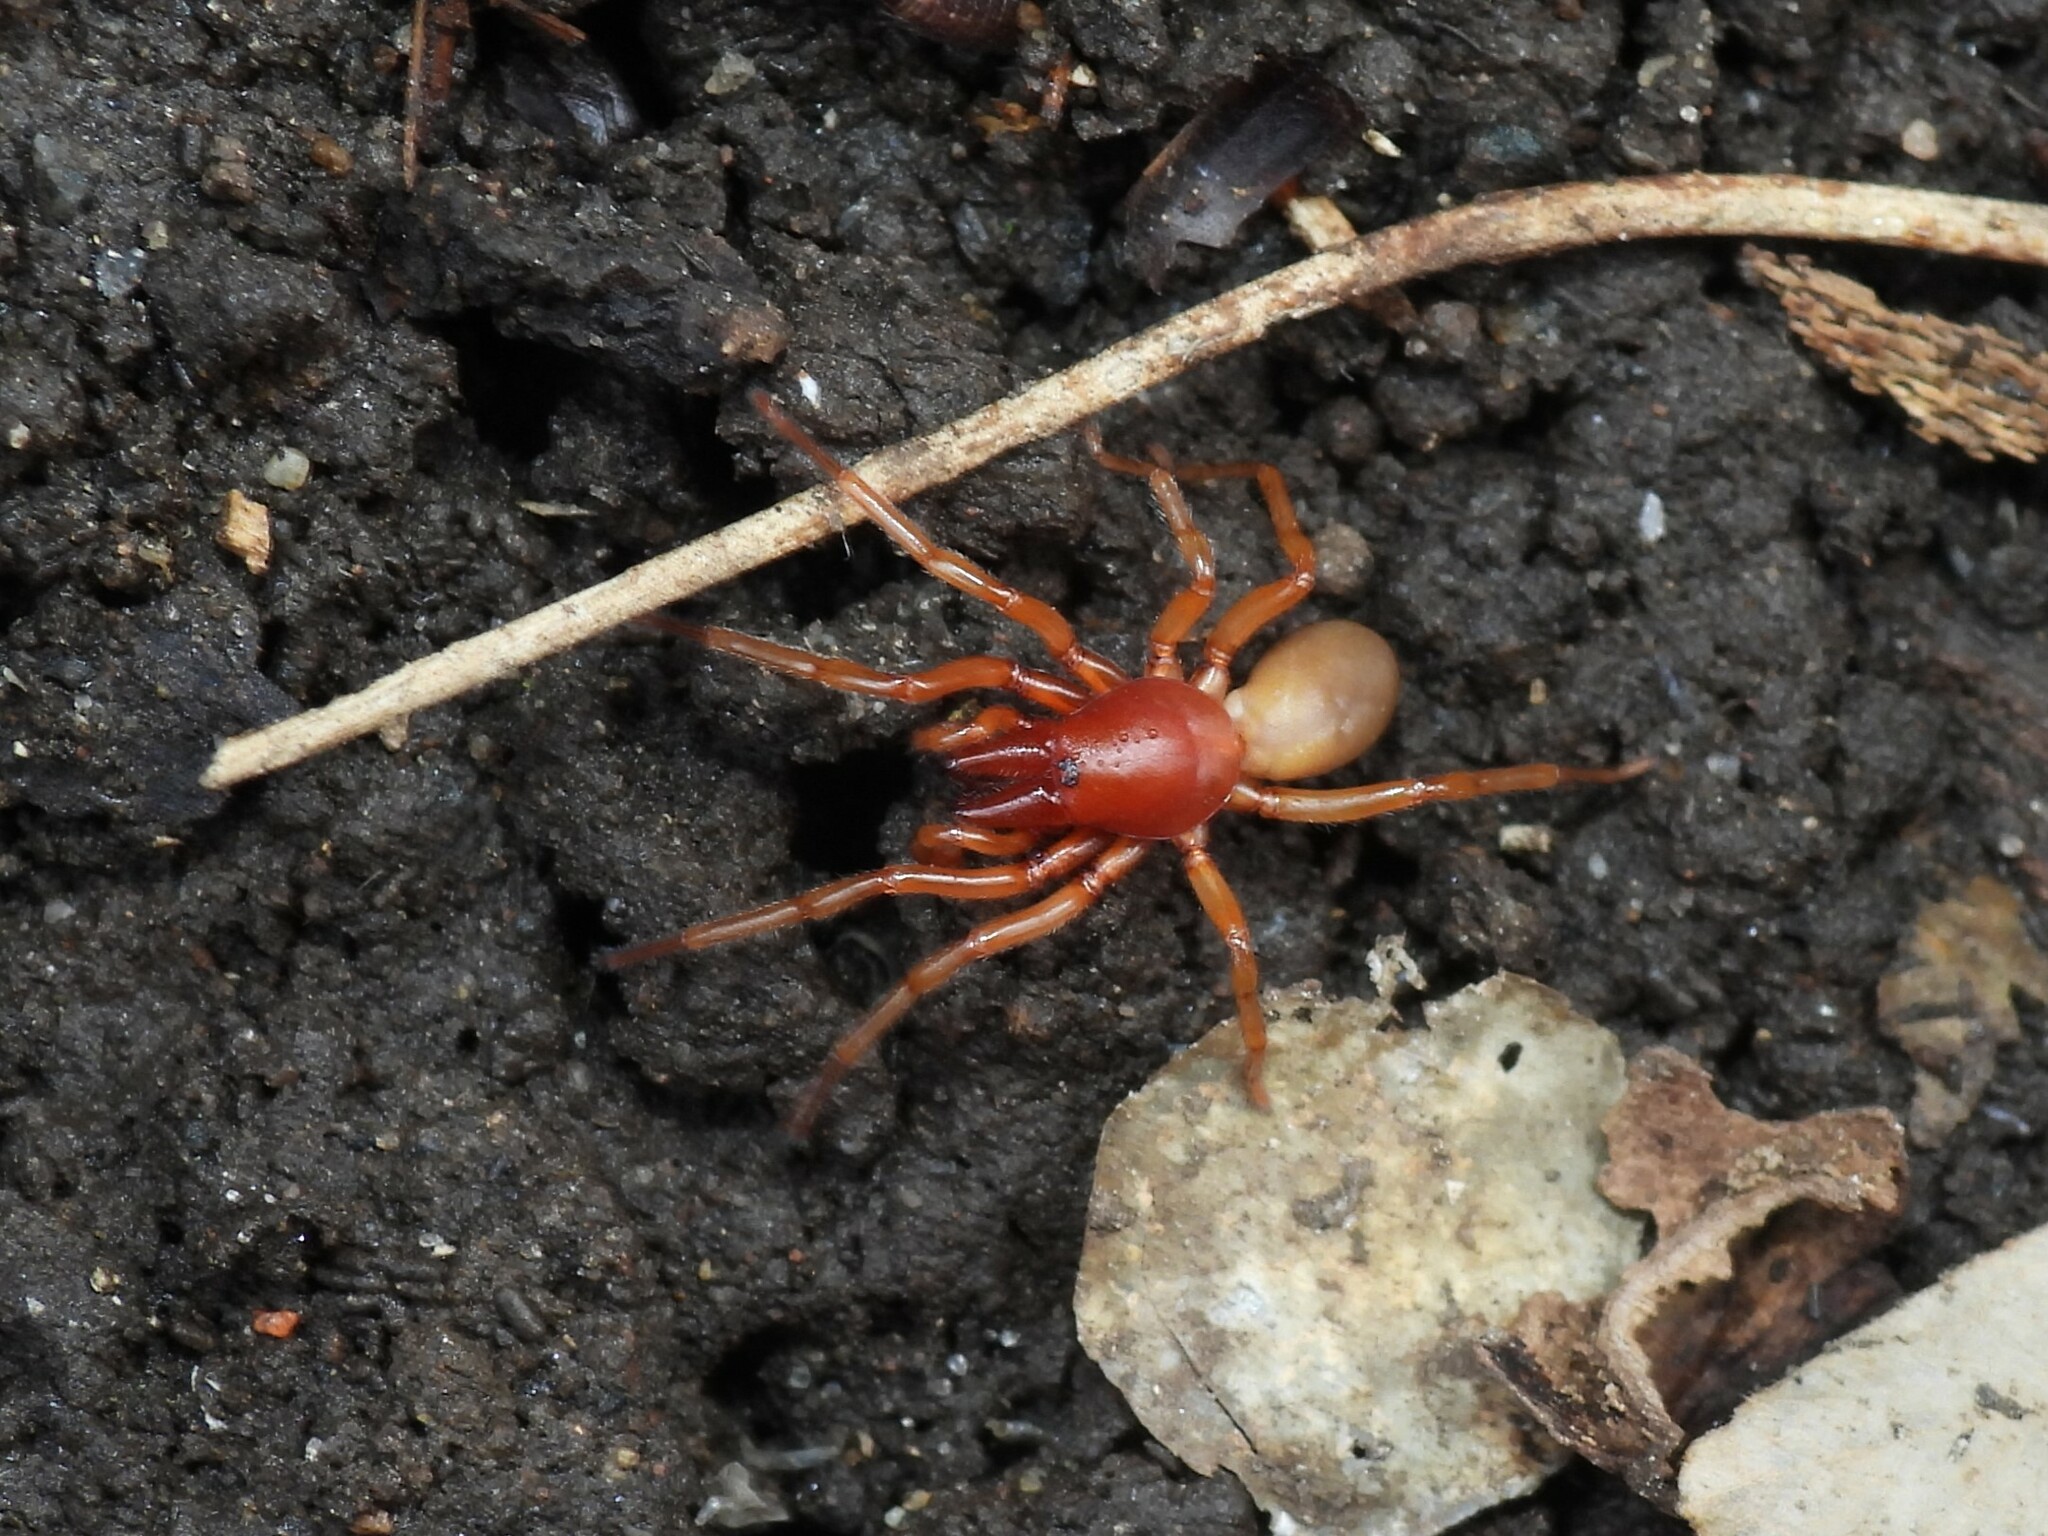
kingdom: Animalia
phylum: Arthropoda
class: Arachnida
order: Araneae
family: Dysderidae
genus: Dysdera
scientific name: Dysdera crocata
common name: Woodlouse spider
